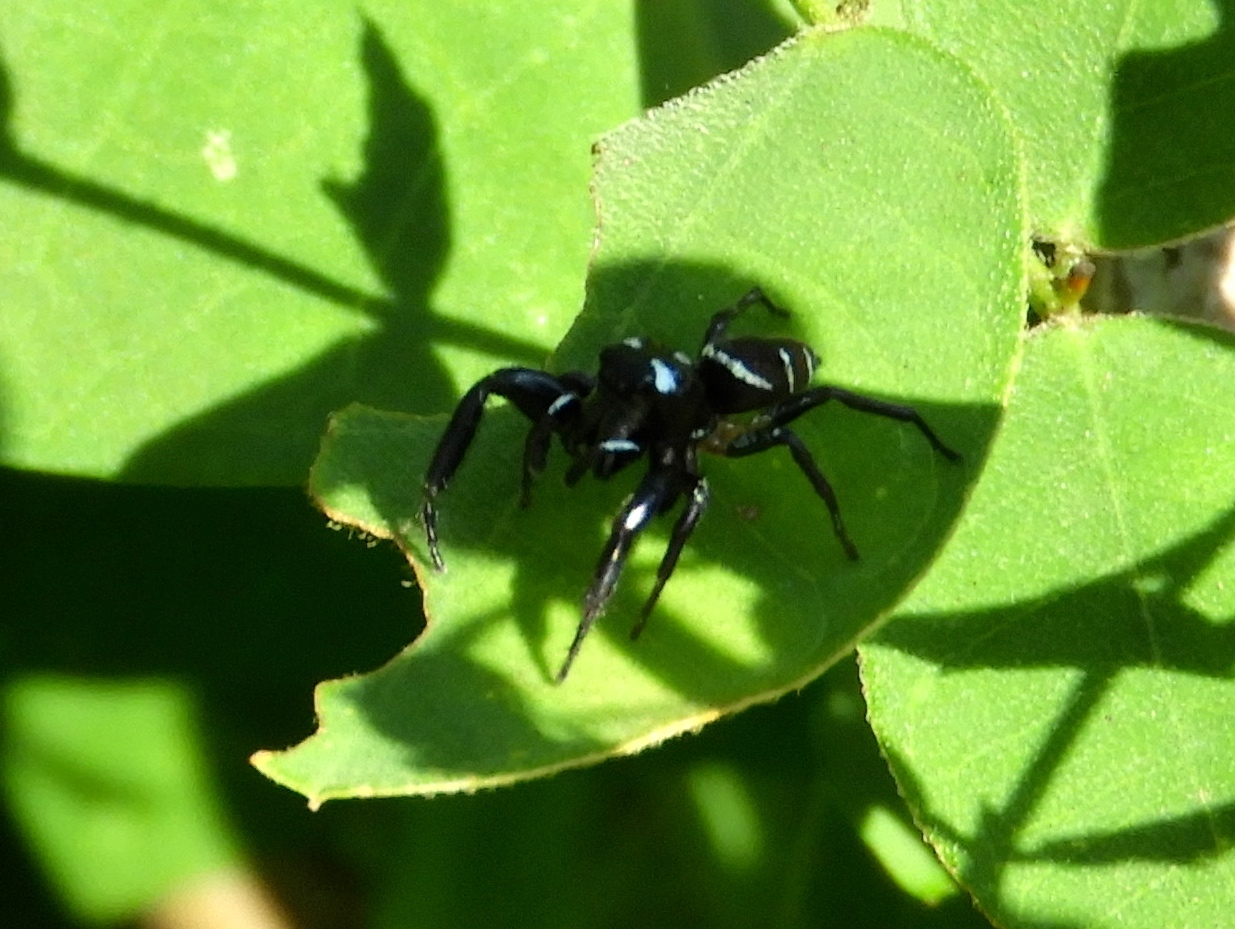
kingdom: Animalia
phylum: Arthropoda
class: Arachnida
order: Araneae
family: Salticidae
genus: Sassacus
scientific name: Sassacus
